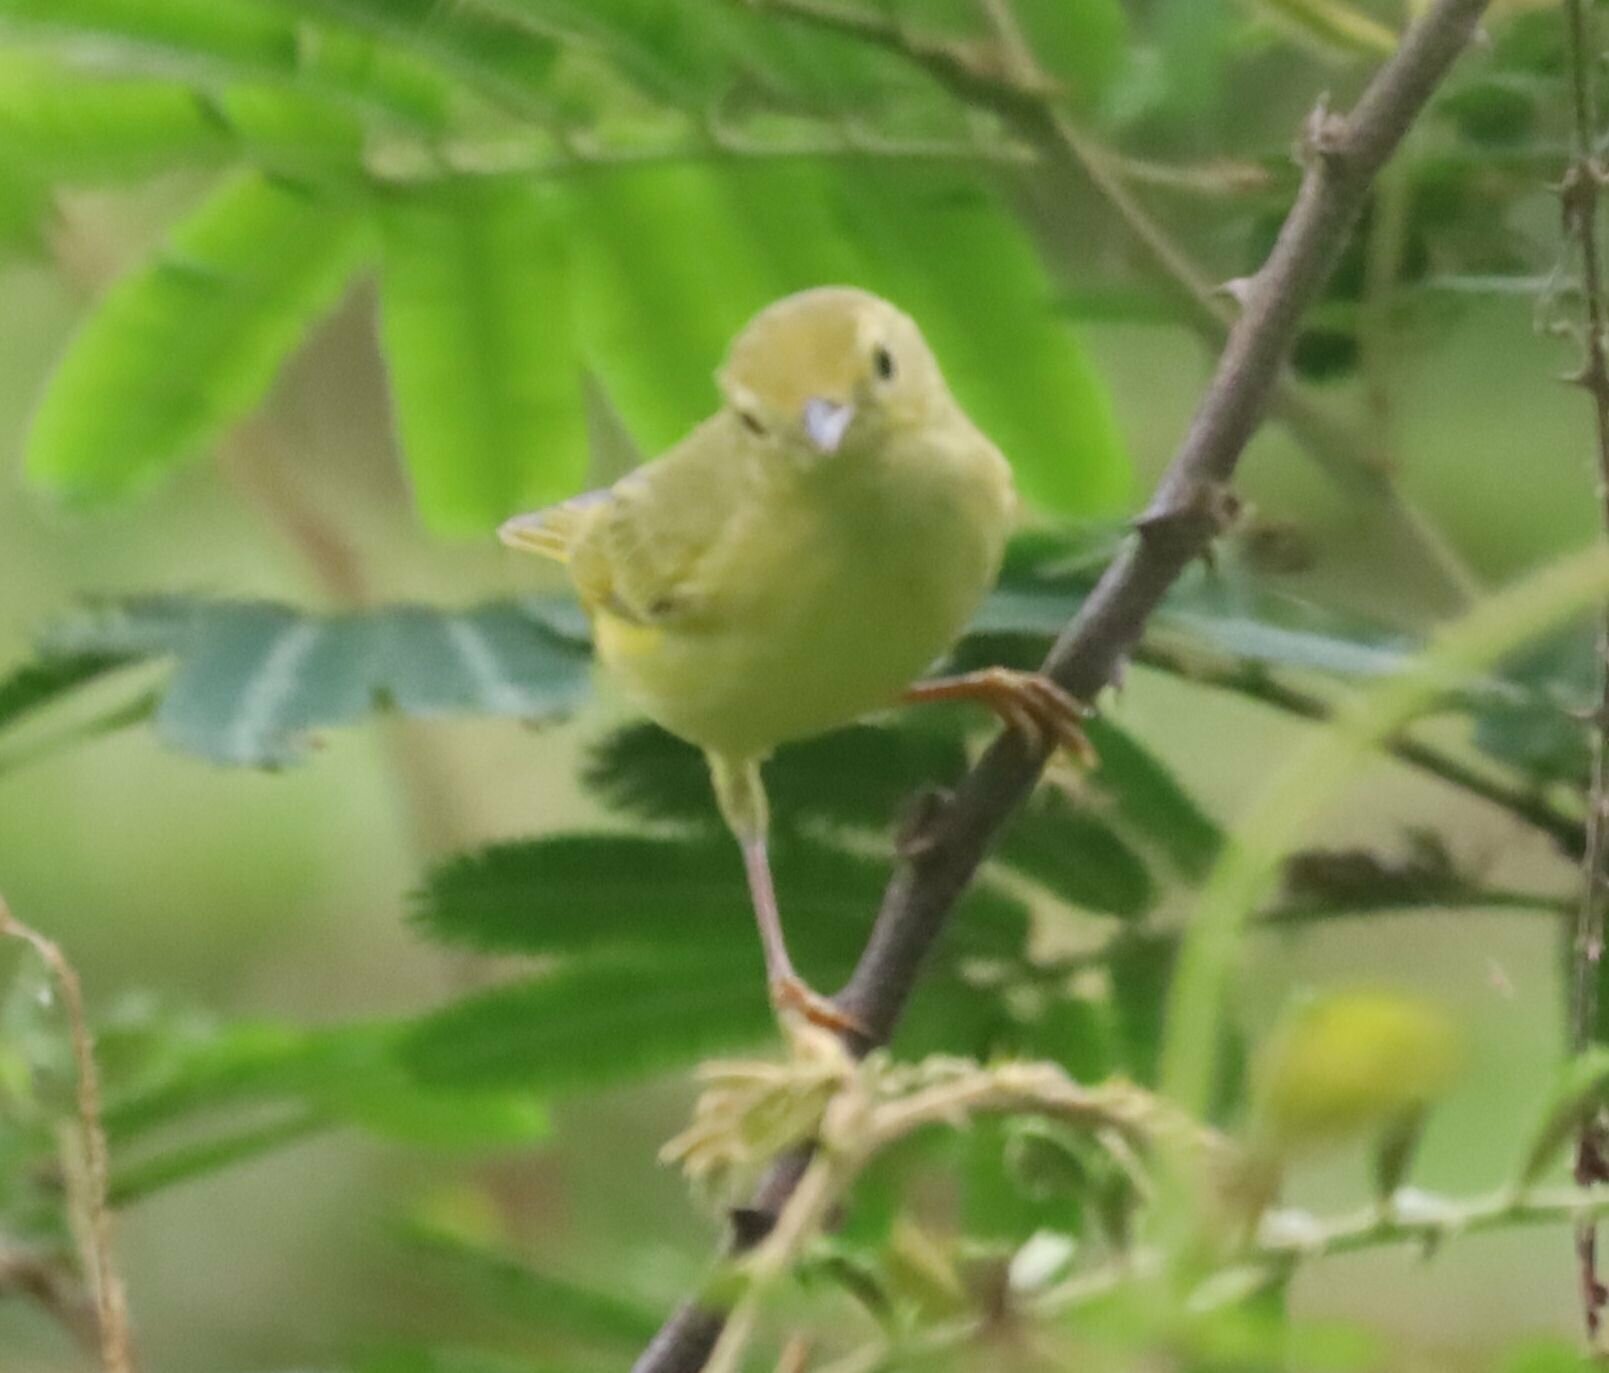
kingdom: Animalia
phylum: Chordata
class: Aves
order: Passeriformes
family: Parulidae
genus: Setophaga
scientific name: Setophaga petechia
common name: Yellow warbler
